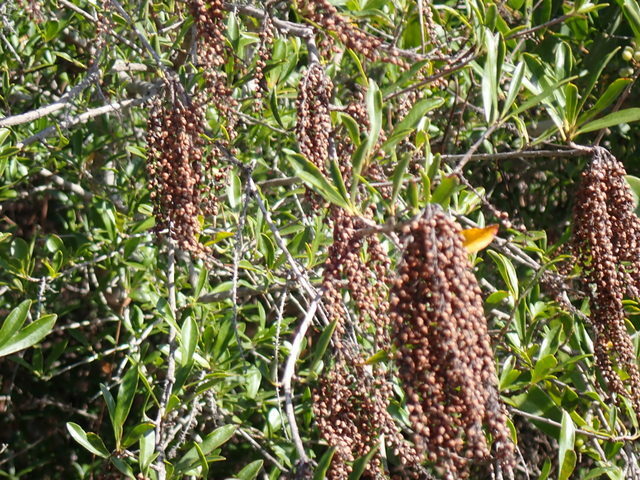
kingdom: Plantae
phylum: Tracheophyta
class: Magnoliopsida
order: Ericales
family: Cyrillaceae
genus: Cyrilla
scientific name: Cyrilla racemiflora
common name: Black titi
